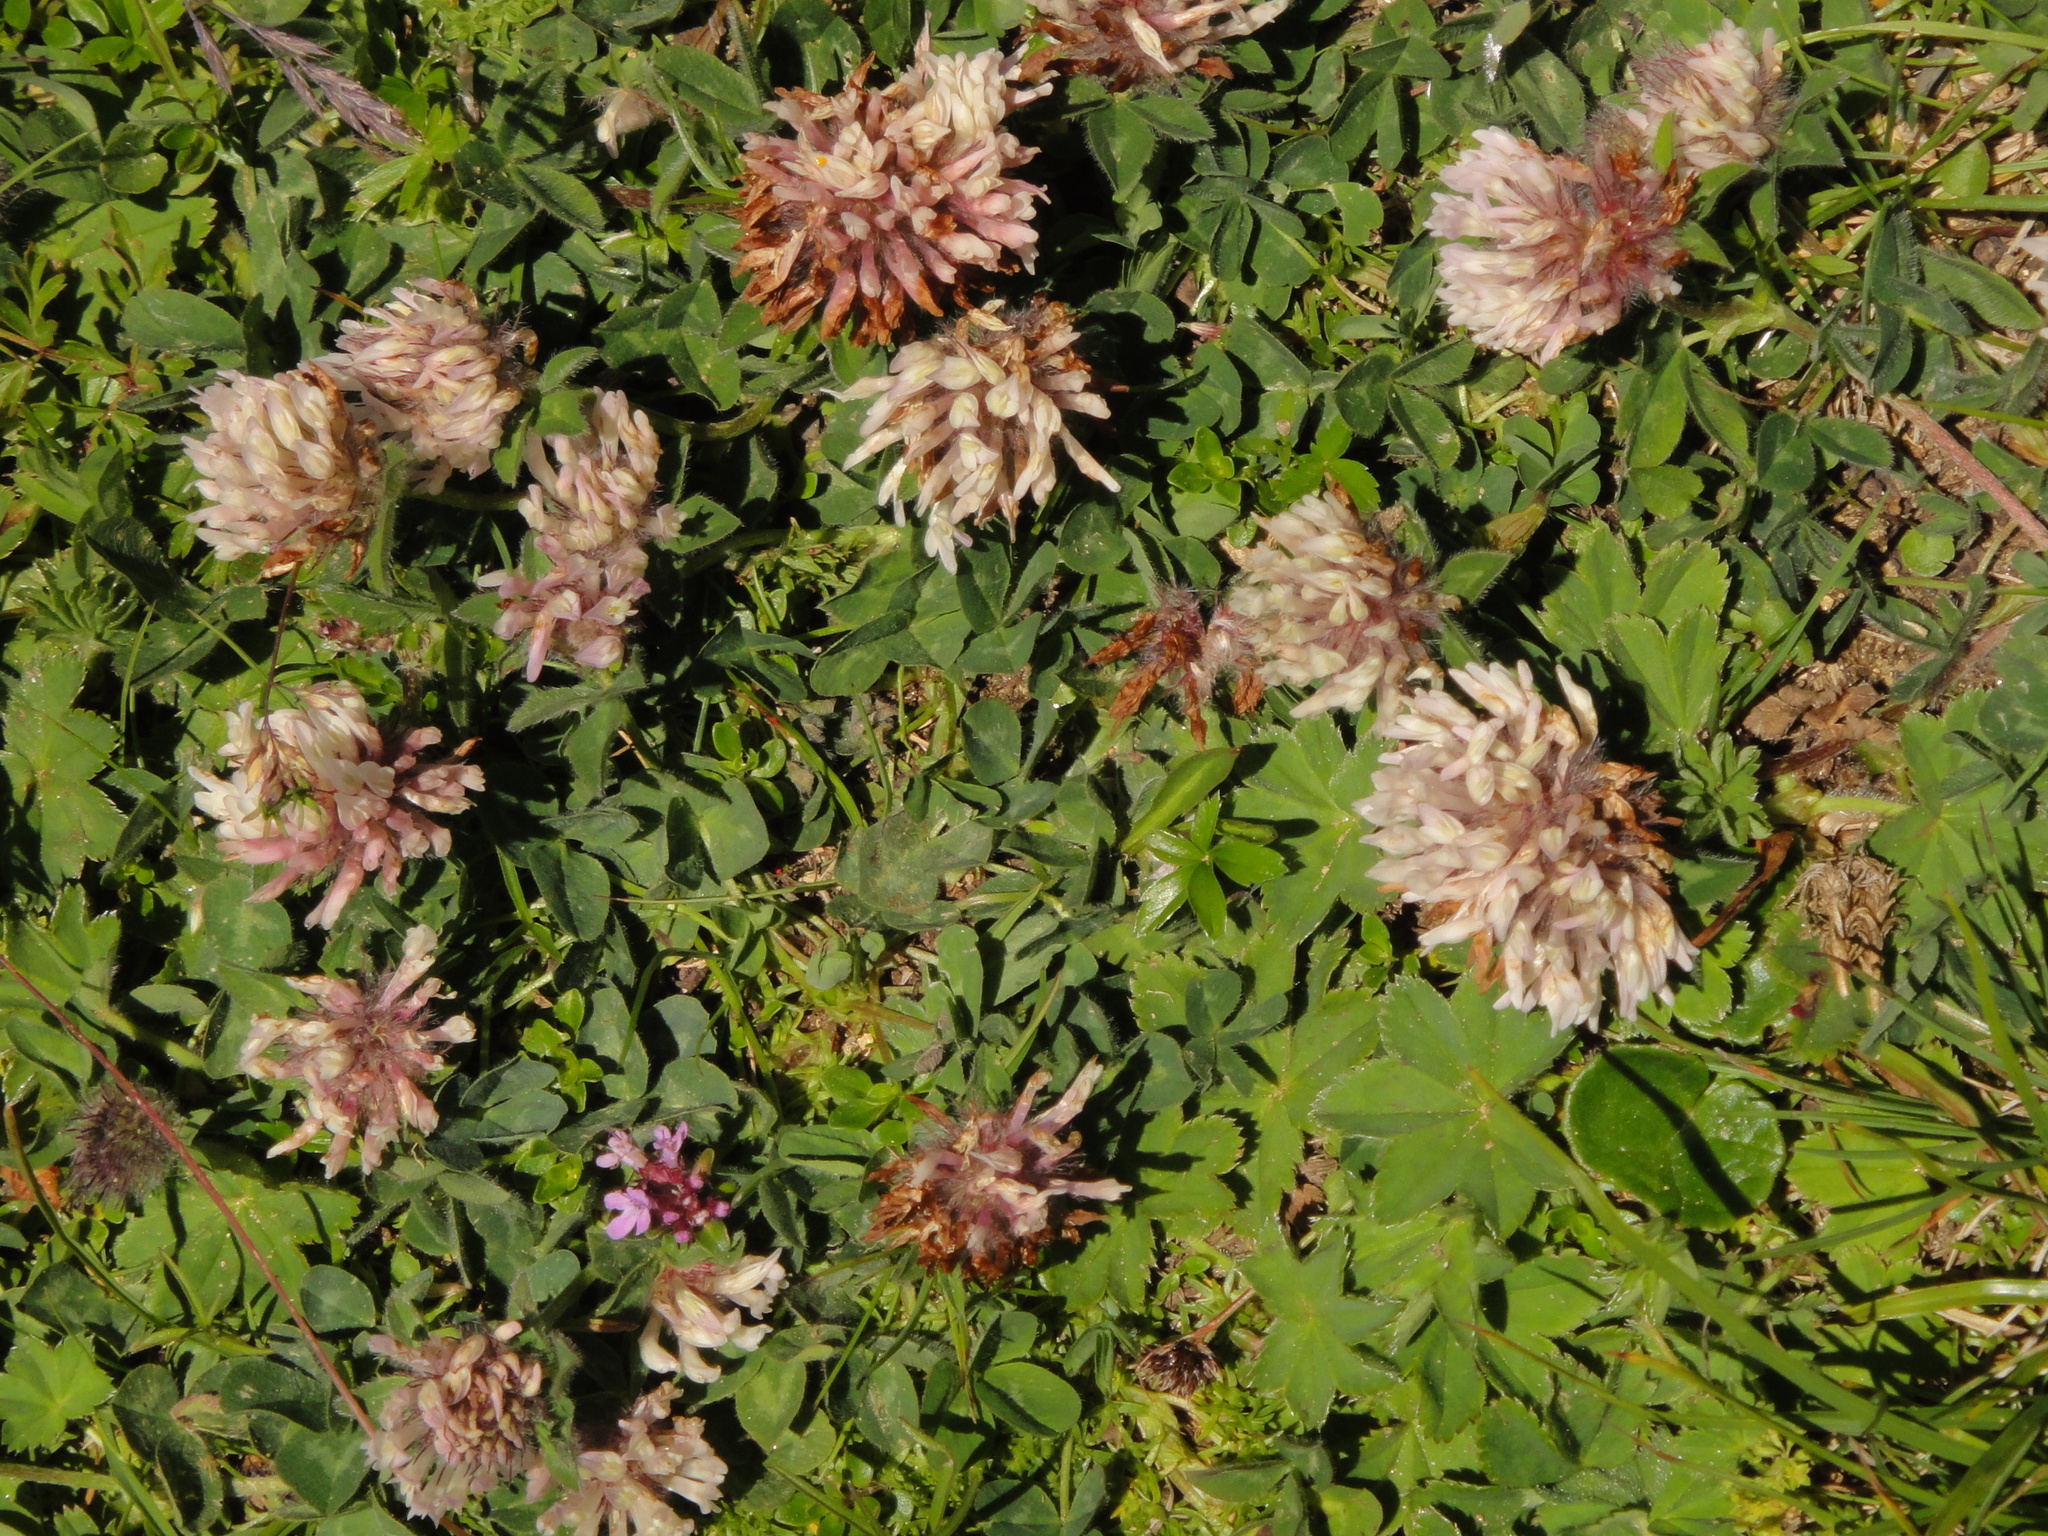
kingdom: Plantae
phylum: Tracheophyta
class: Magnoliopsida
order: Fabales
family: Fabaceae
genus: Trifolium
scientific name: Trifolium pratense
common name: Red clover
